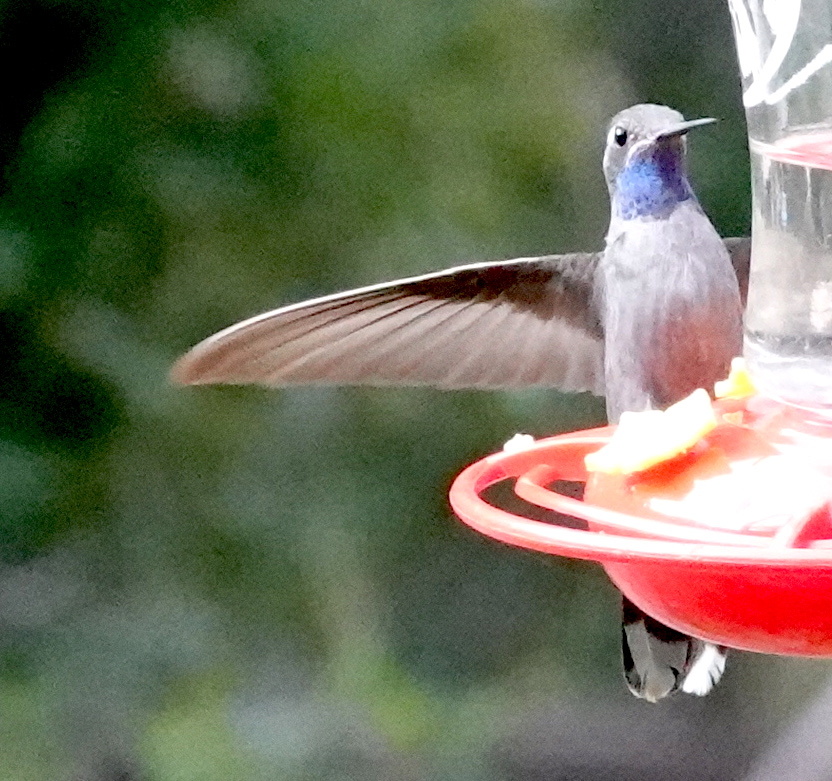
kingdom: Animalia
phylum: Chordata
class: Aves
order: Apodiformes
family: Trochilidae
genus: Lampornis
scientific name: Lampornis clemenciae
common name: Blue-throated mountaingem
